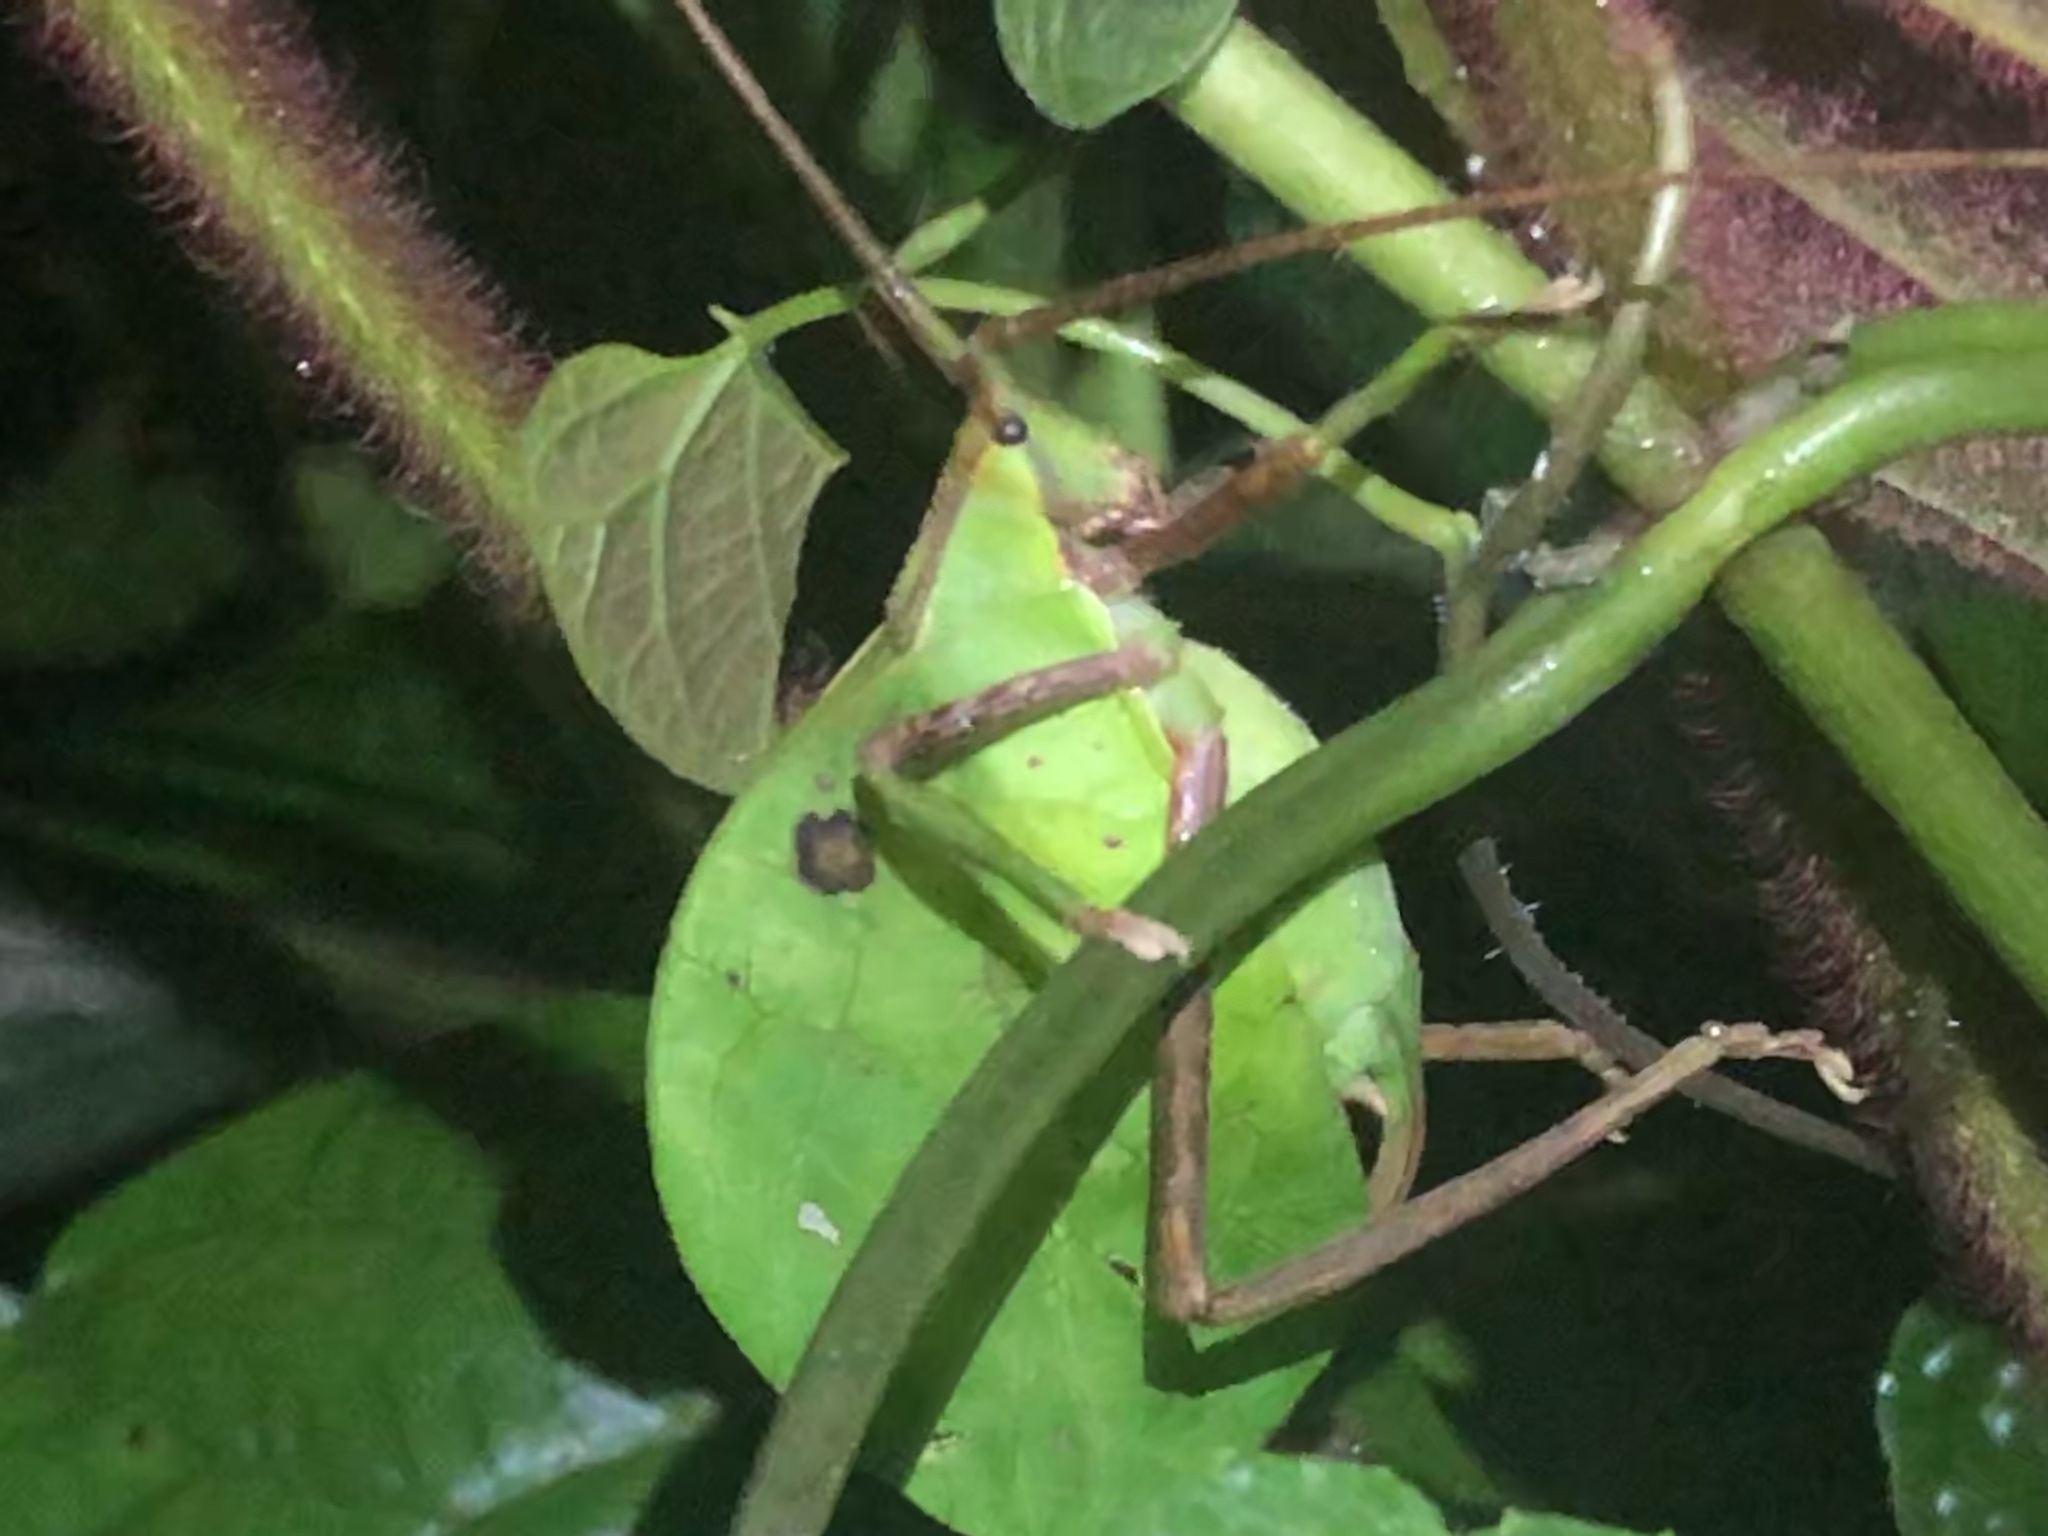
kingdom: Animalia
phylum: Arthropoda
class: Insecta
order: Orthoptera
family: Tettigoniidae
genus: Roxelana
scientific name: Roxelana crassicornis
